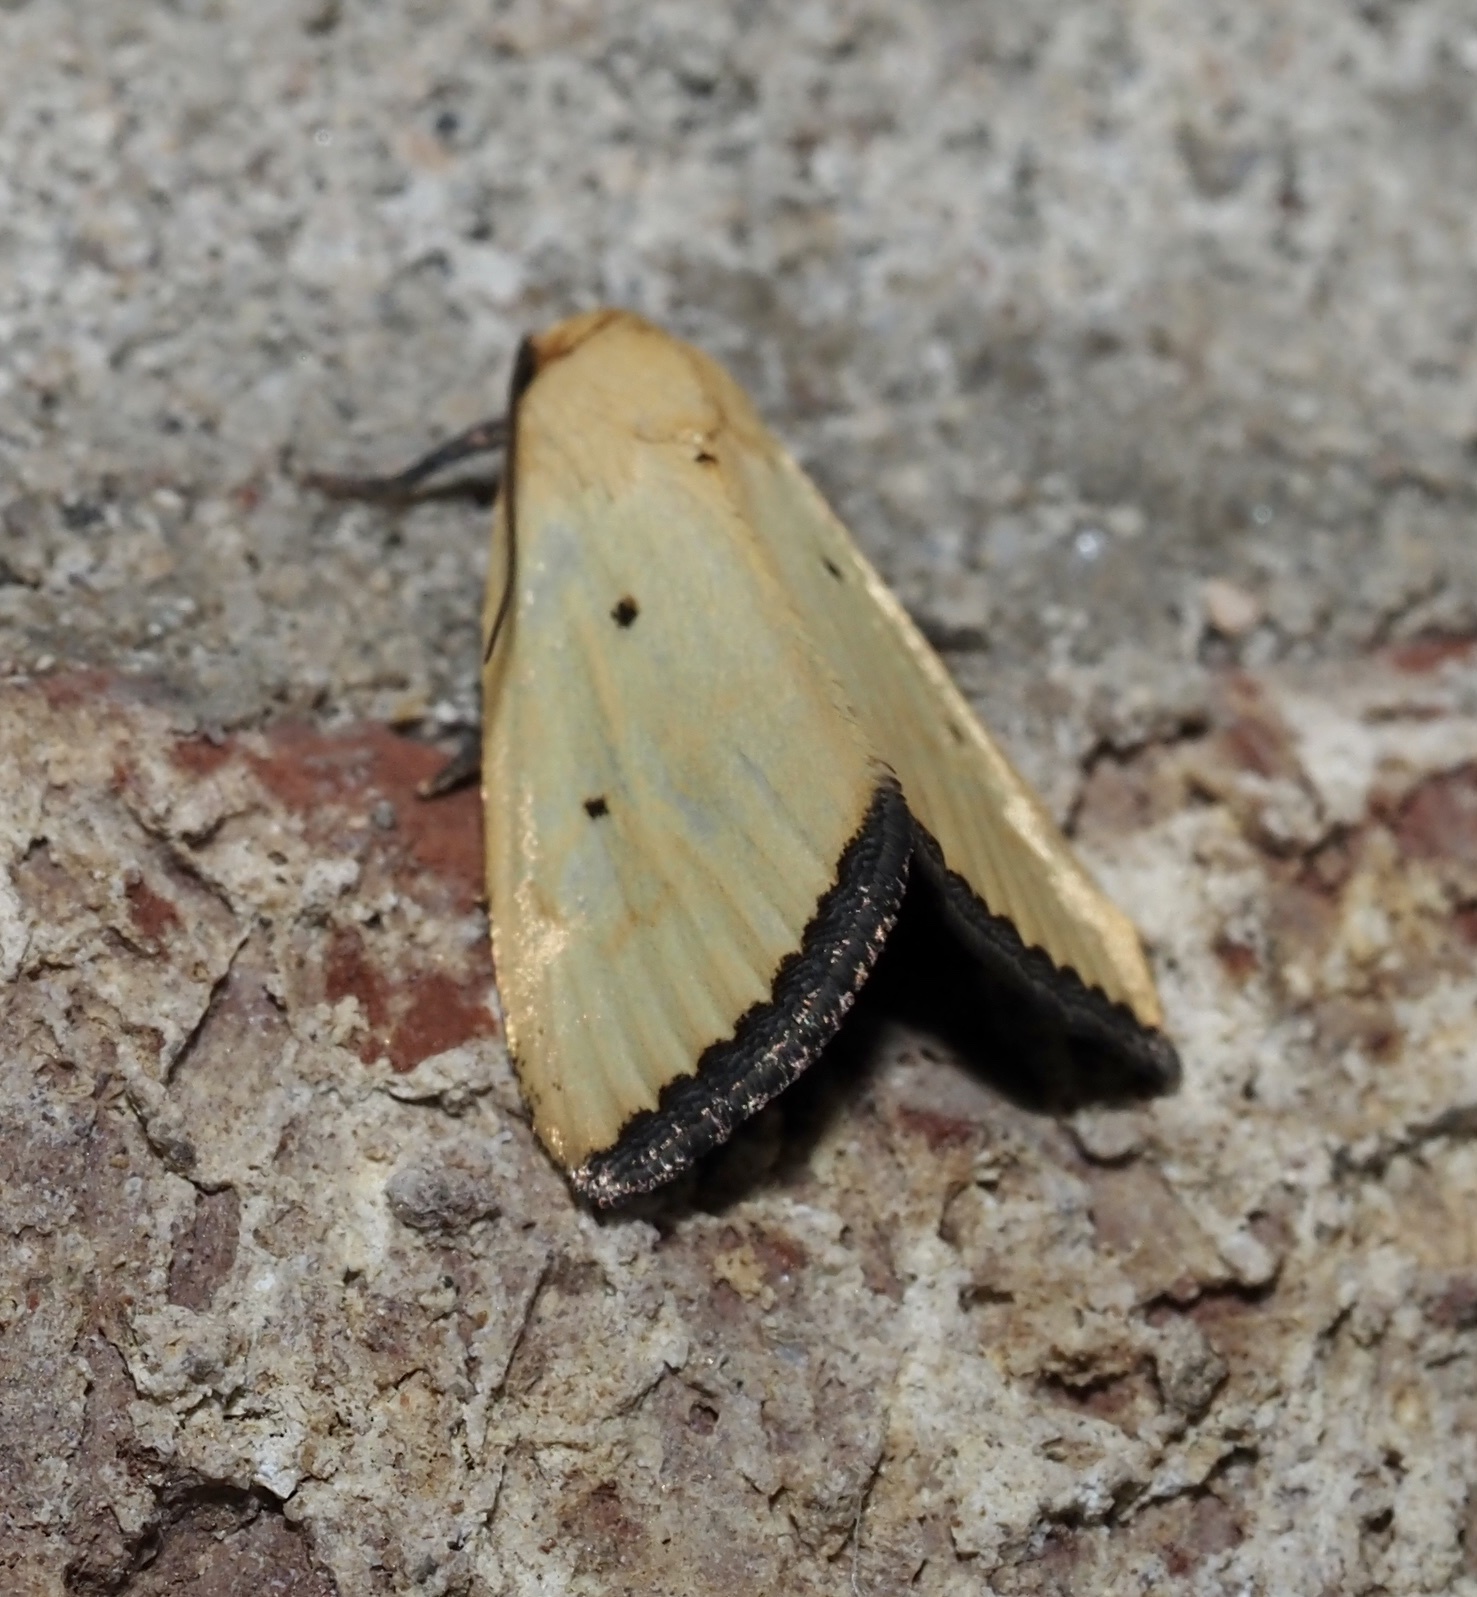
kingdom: Animalia
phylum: Arthropoda
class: Insecta
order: Lepidoptera
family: Noctuidae
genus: Marimatha
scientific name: Marimatha nigrofimbria
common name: Black-bordered lemon moth
